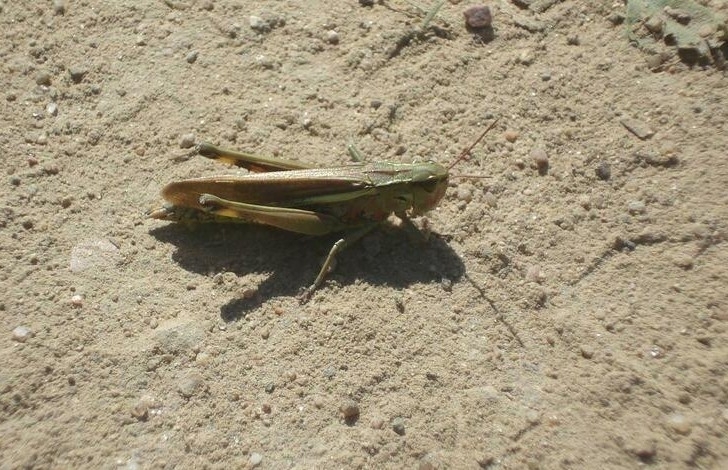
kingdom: Animalia
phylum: Arthropoda
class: Insecta
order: Orthoptera
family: Acrididae
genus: Stethophyma
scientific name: Stethophyma grossum
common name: Large marsh grasshopper
